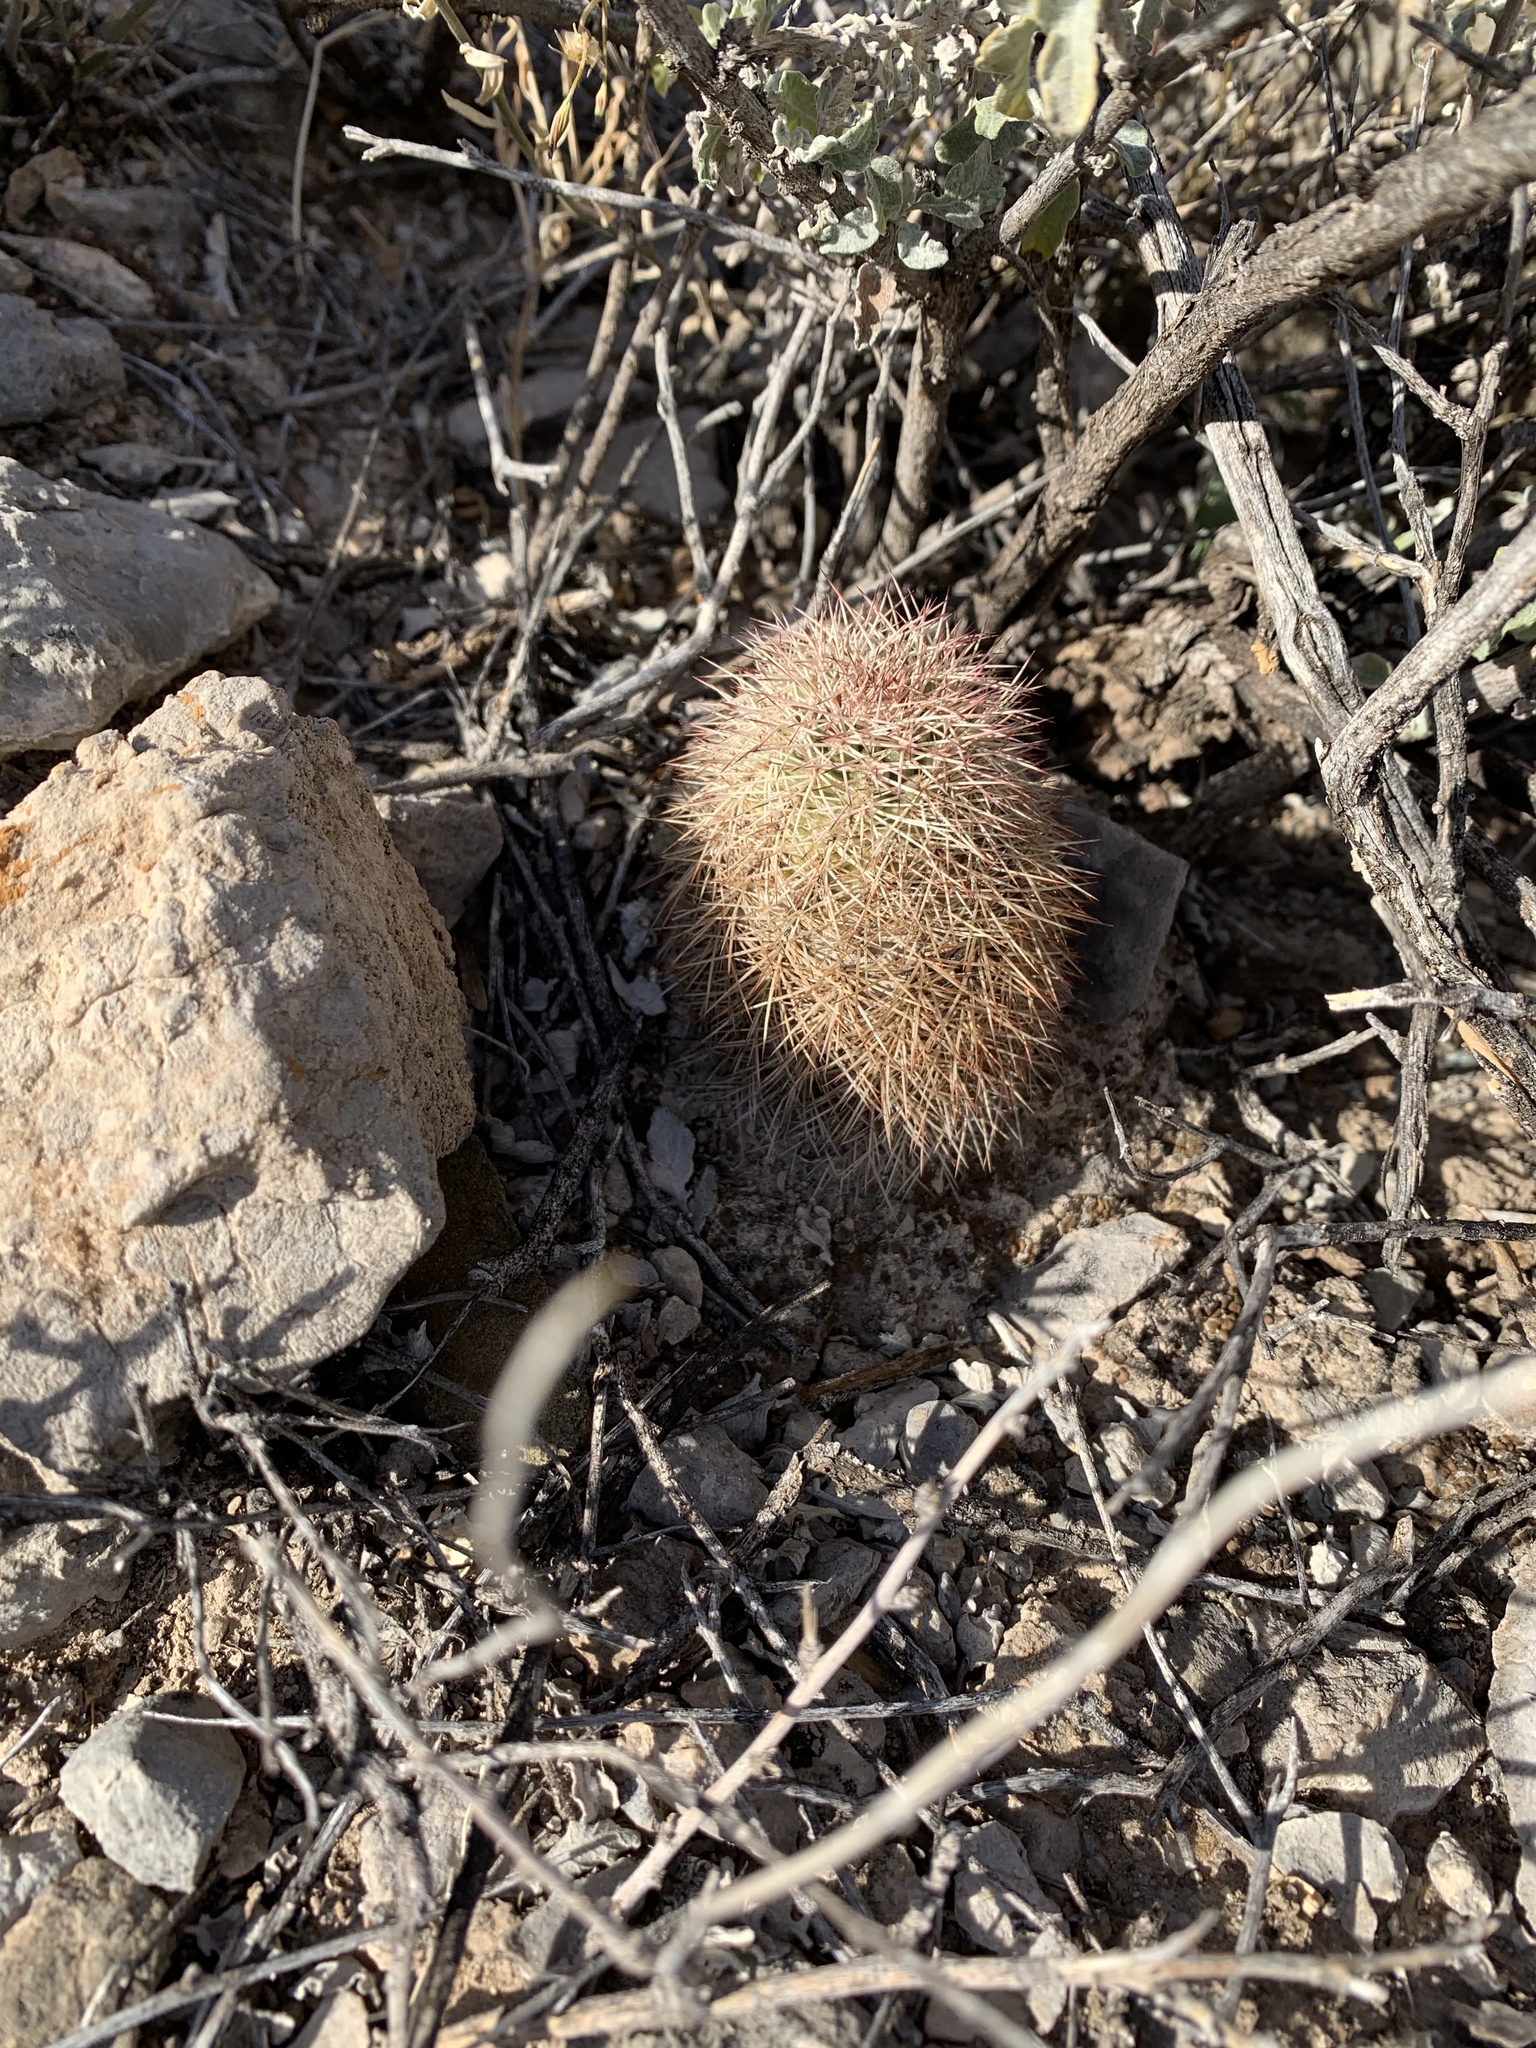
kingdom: Plantae
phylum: Tracheophyta
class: Magnoliopsida
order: Caryophyllales
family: Cactaceae
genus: Echinocereus
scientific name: Echinocereus dasyacanthus
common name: Spiny hedgehog cactus
